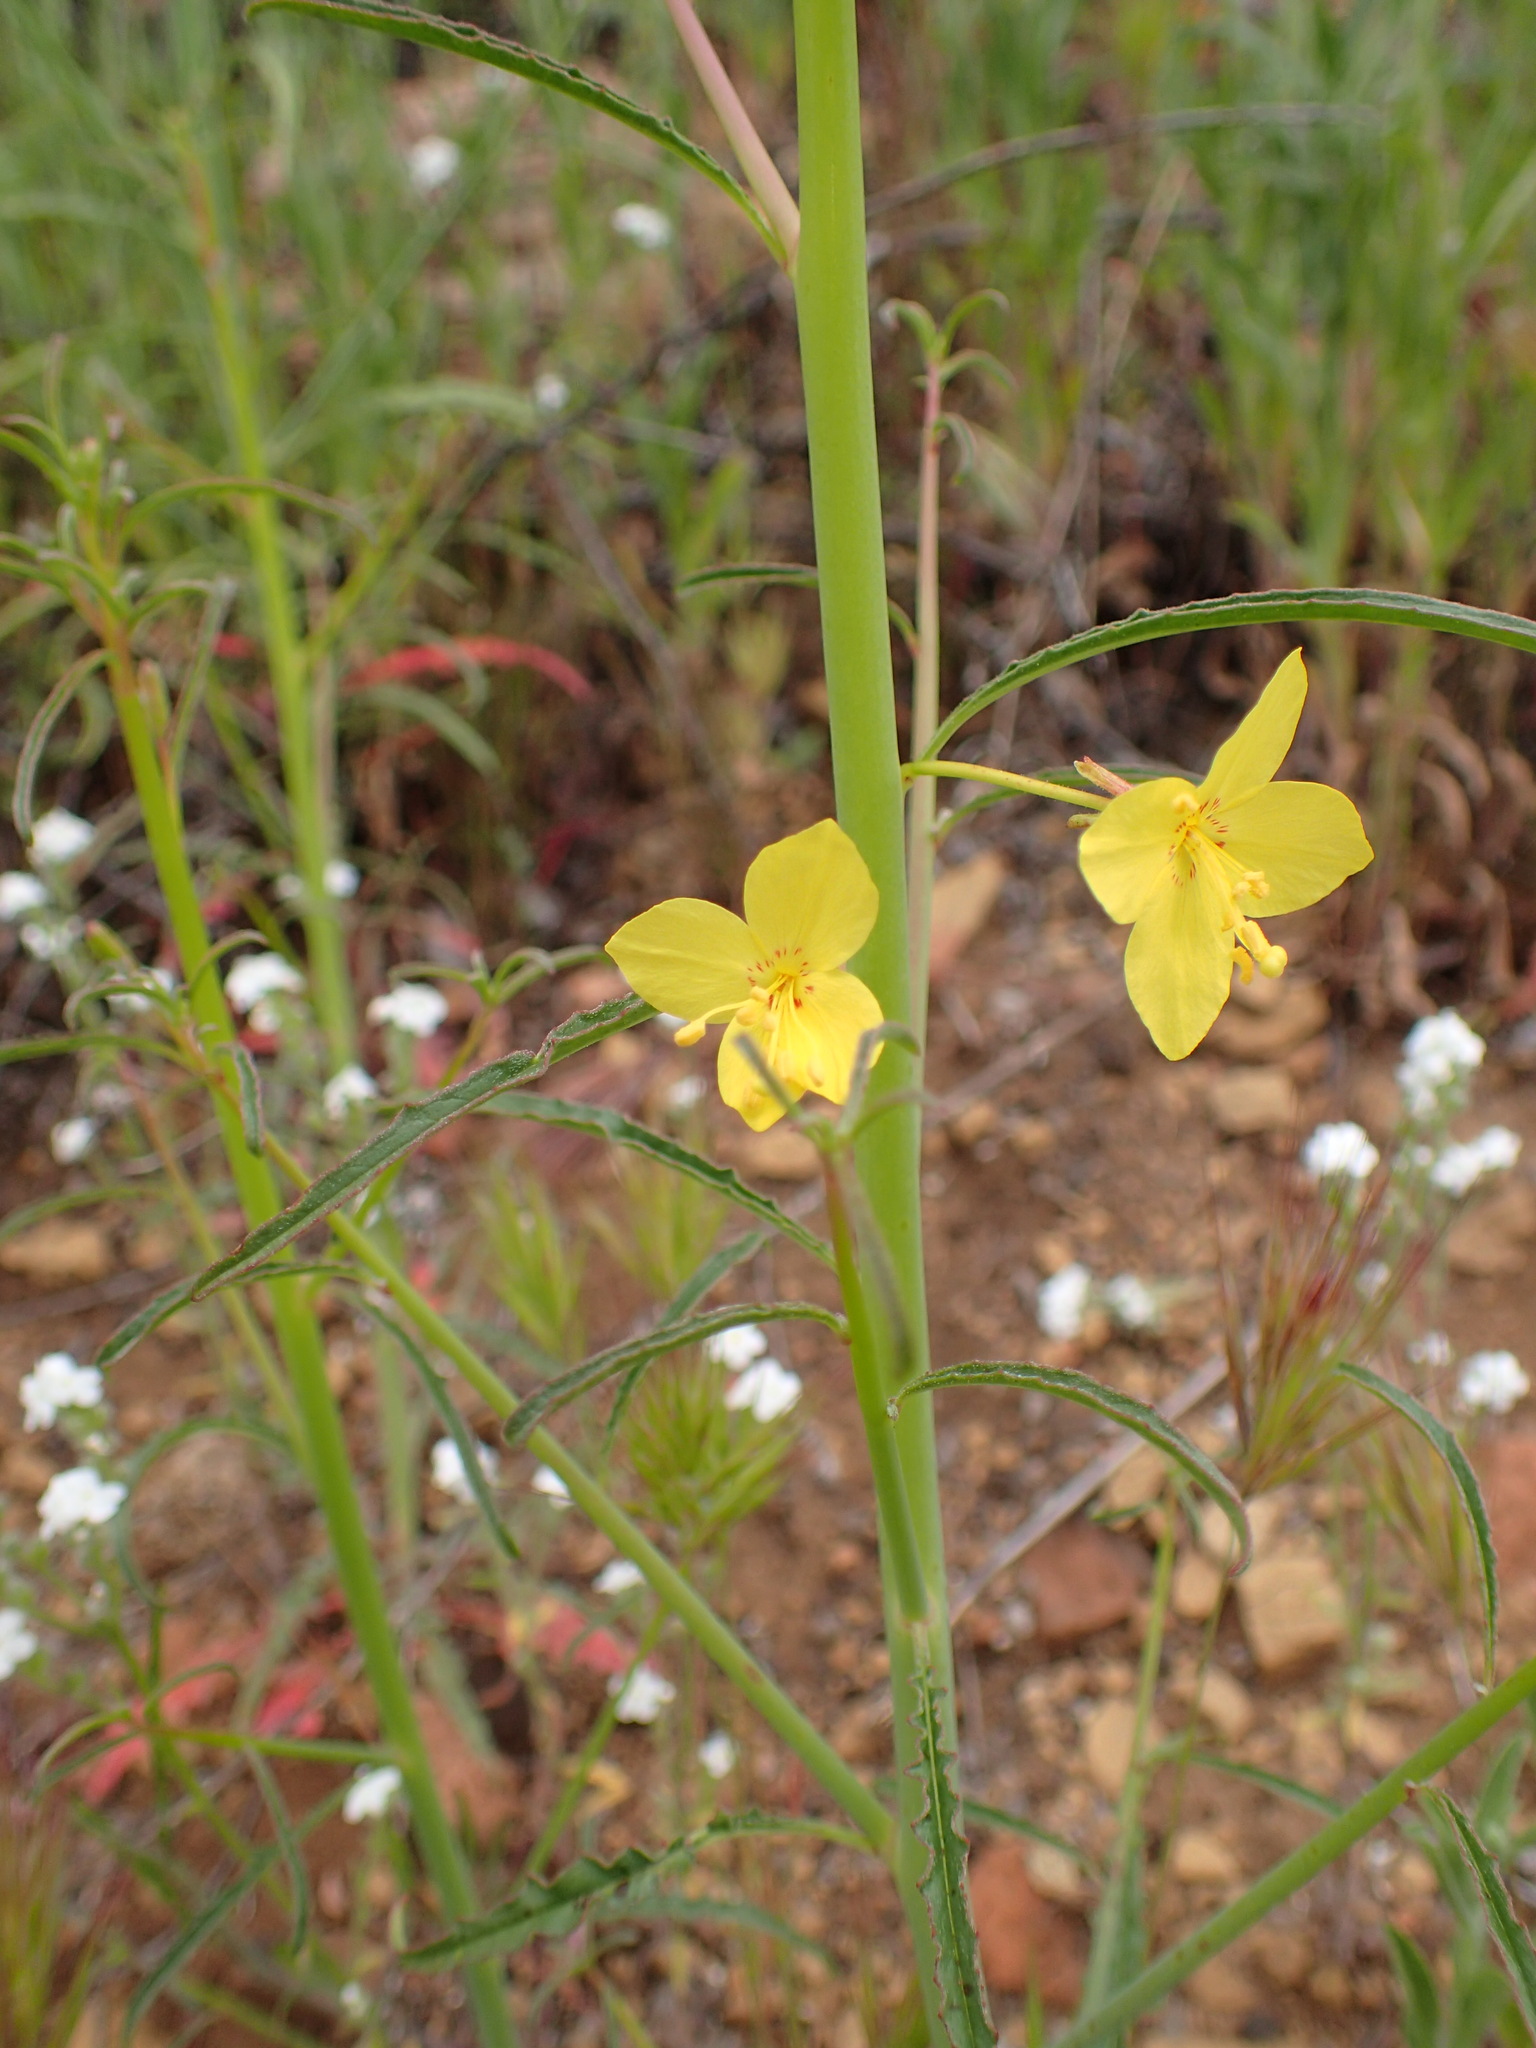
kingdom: Plantae
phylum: Tracheophyta
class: Magnoliopsida
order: Myrtales
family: Onagraceae
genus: Eulobus
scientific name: Eulobus californicus
